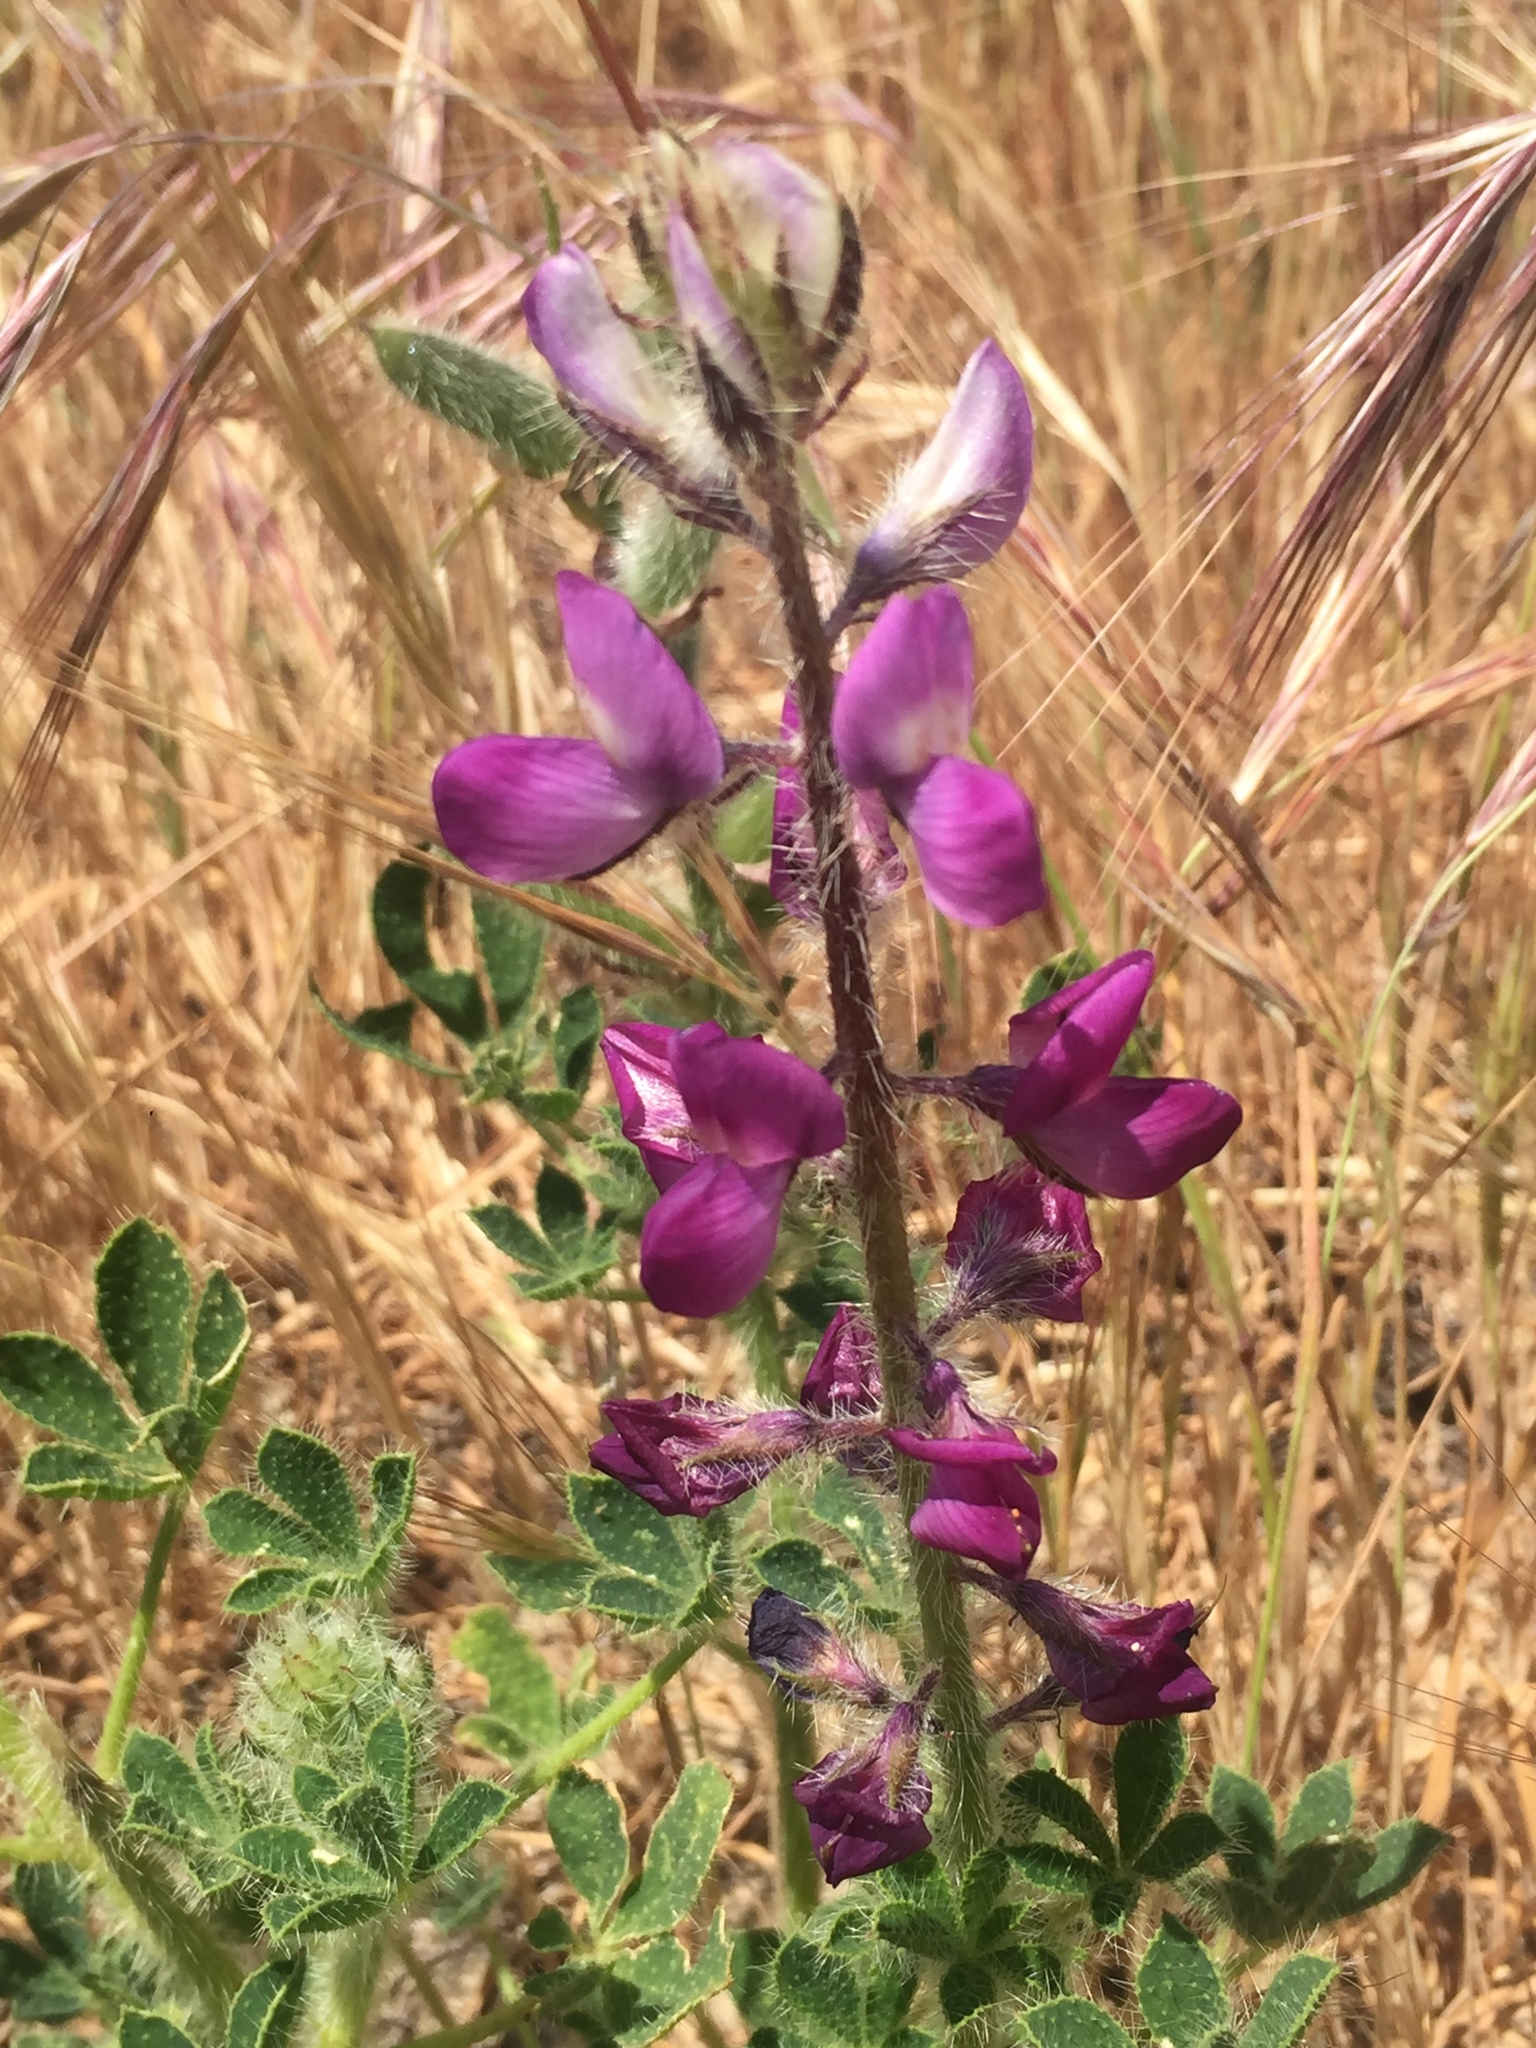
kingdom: Plantae
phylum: Tracheophyta
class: Magnoliopsida
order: Fabales
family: Fabaceae
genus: Lupinus
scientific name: Lupinus hirsutissimus
